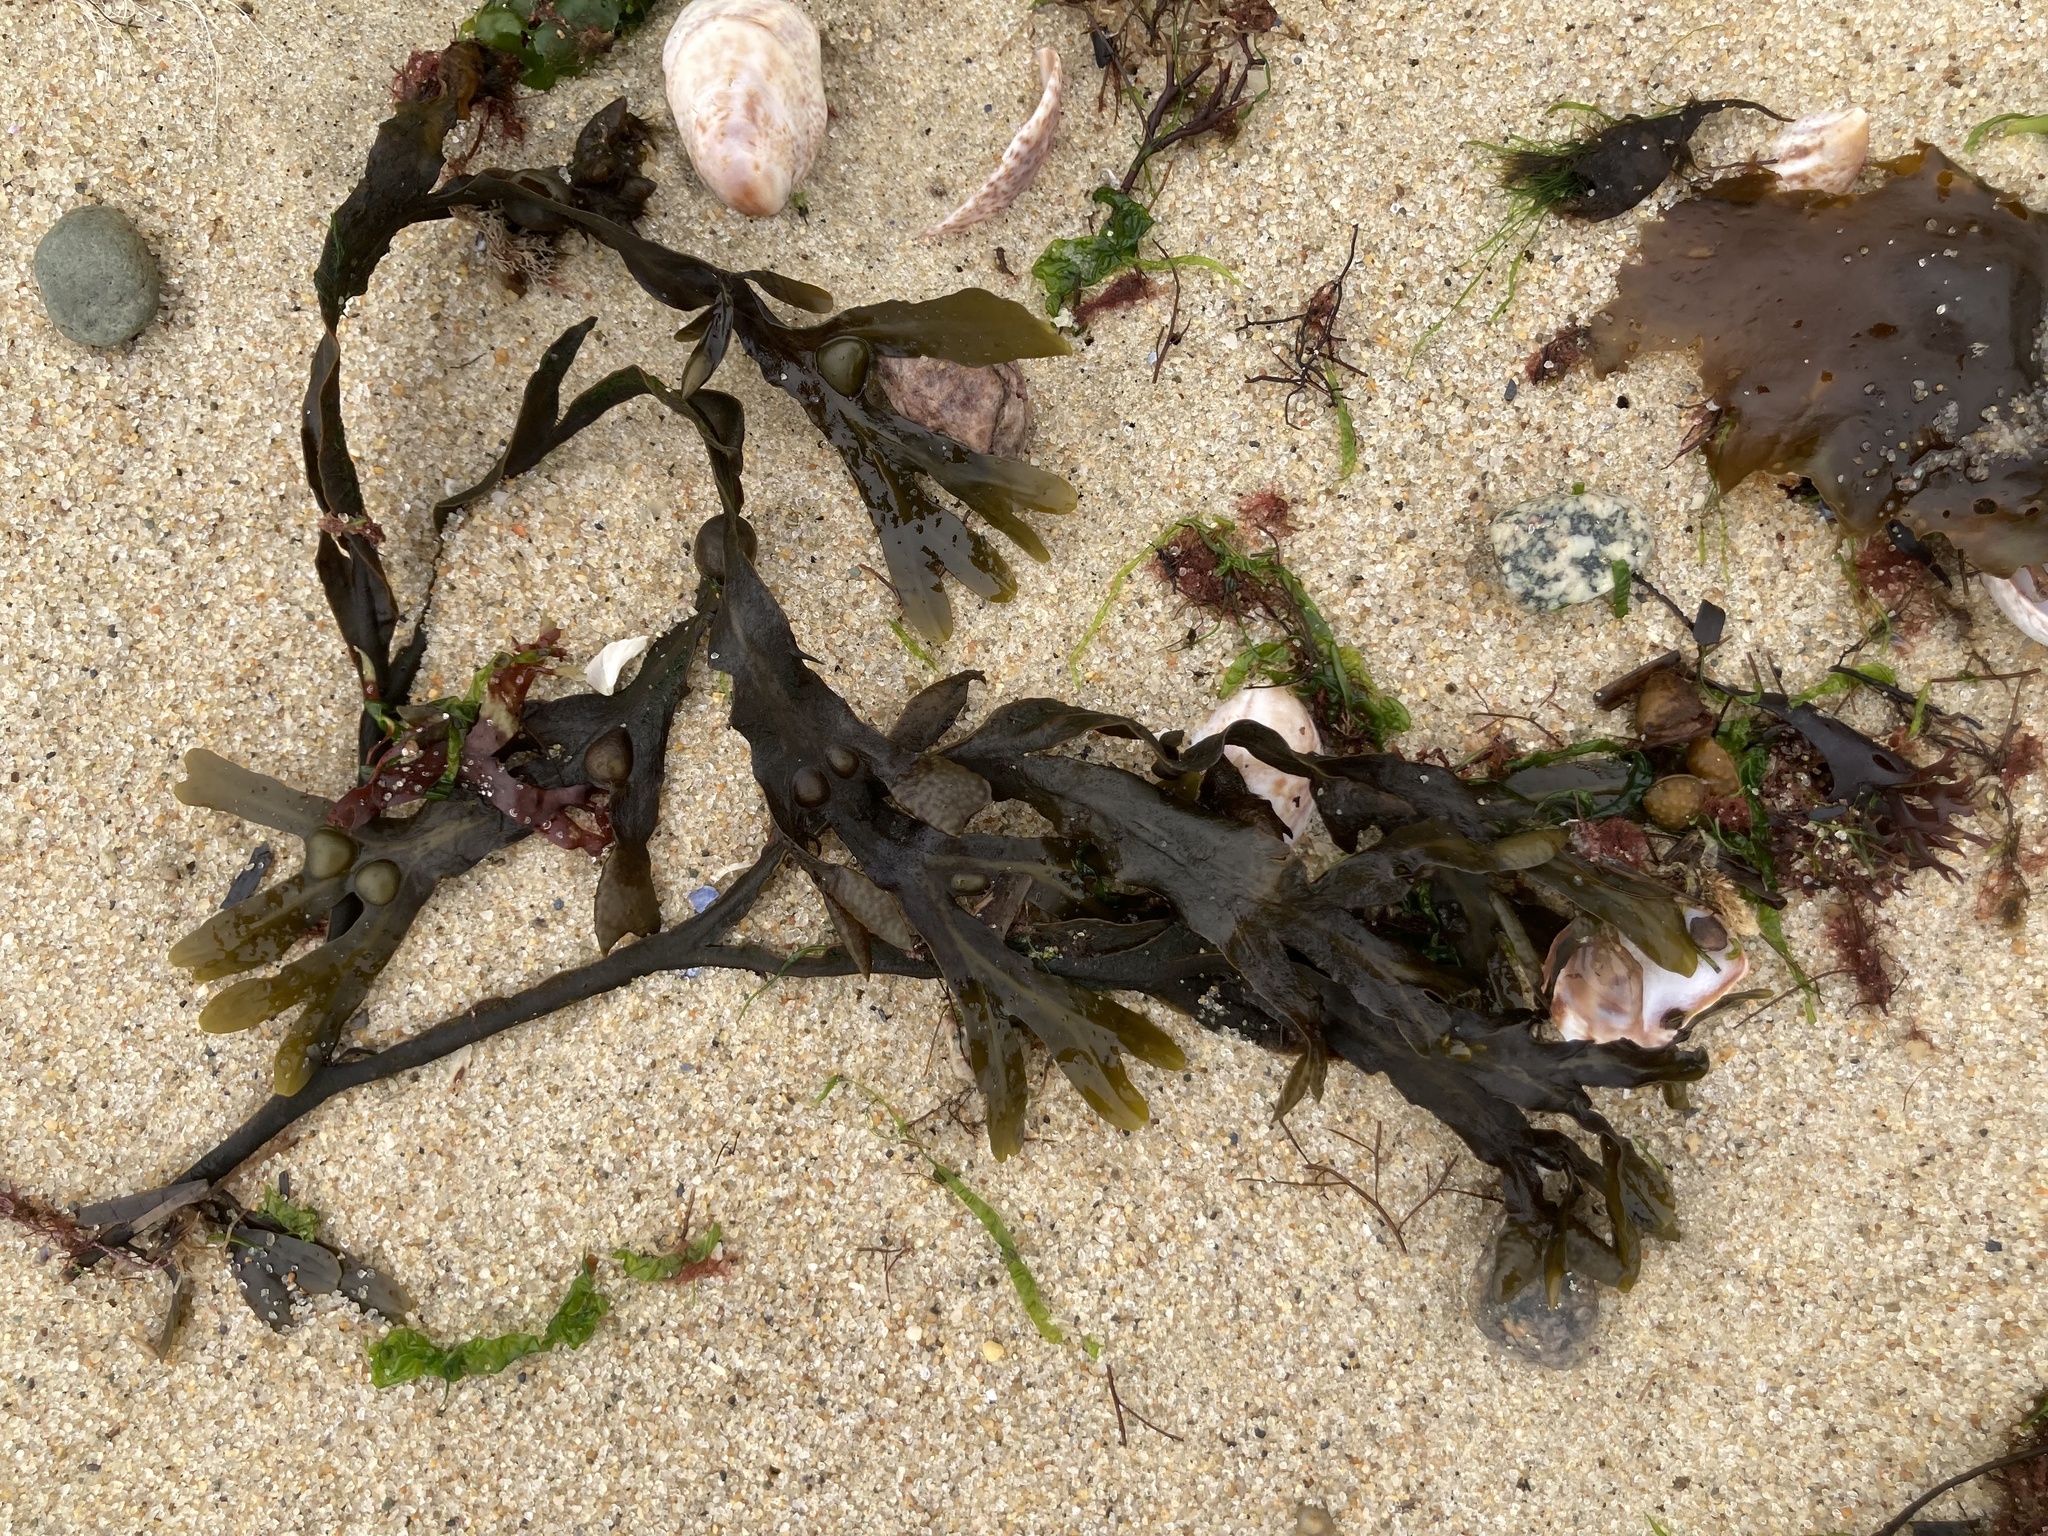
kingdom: Chromista
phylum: Ochrophyta
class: Phaeophyceae
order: Fucales
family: Fucaceae
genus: Fucus
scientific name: Fucus vesiculosus
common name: Bladder wrack
